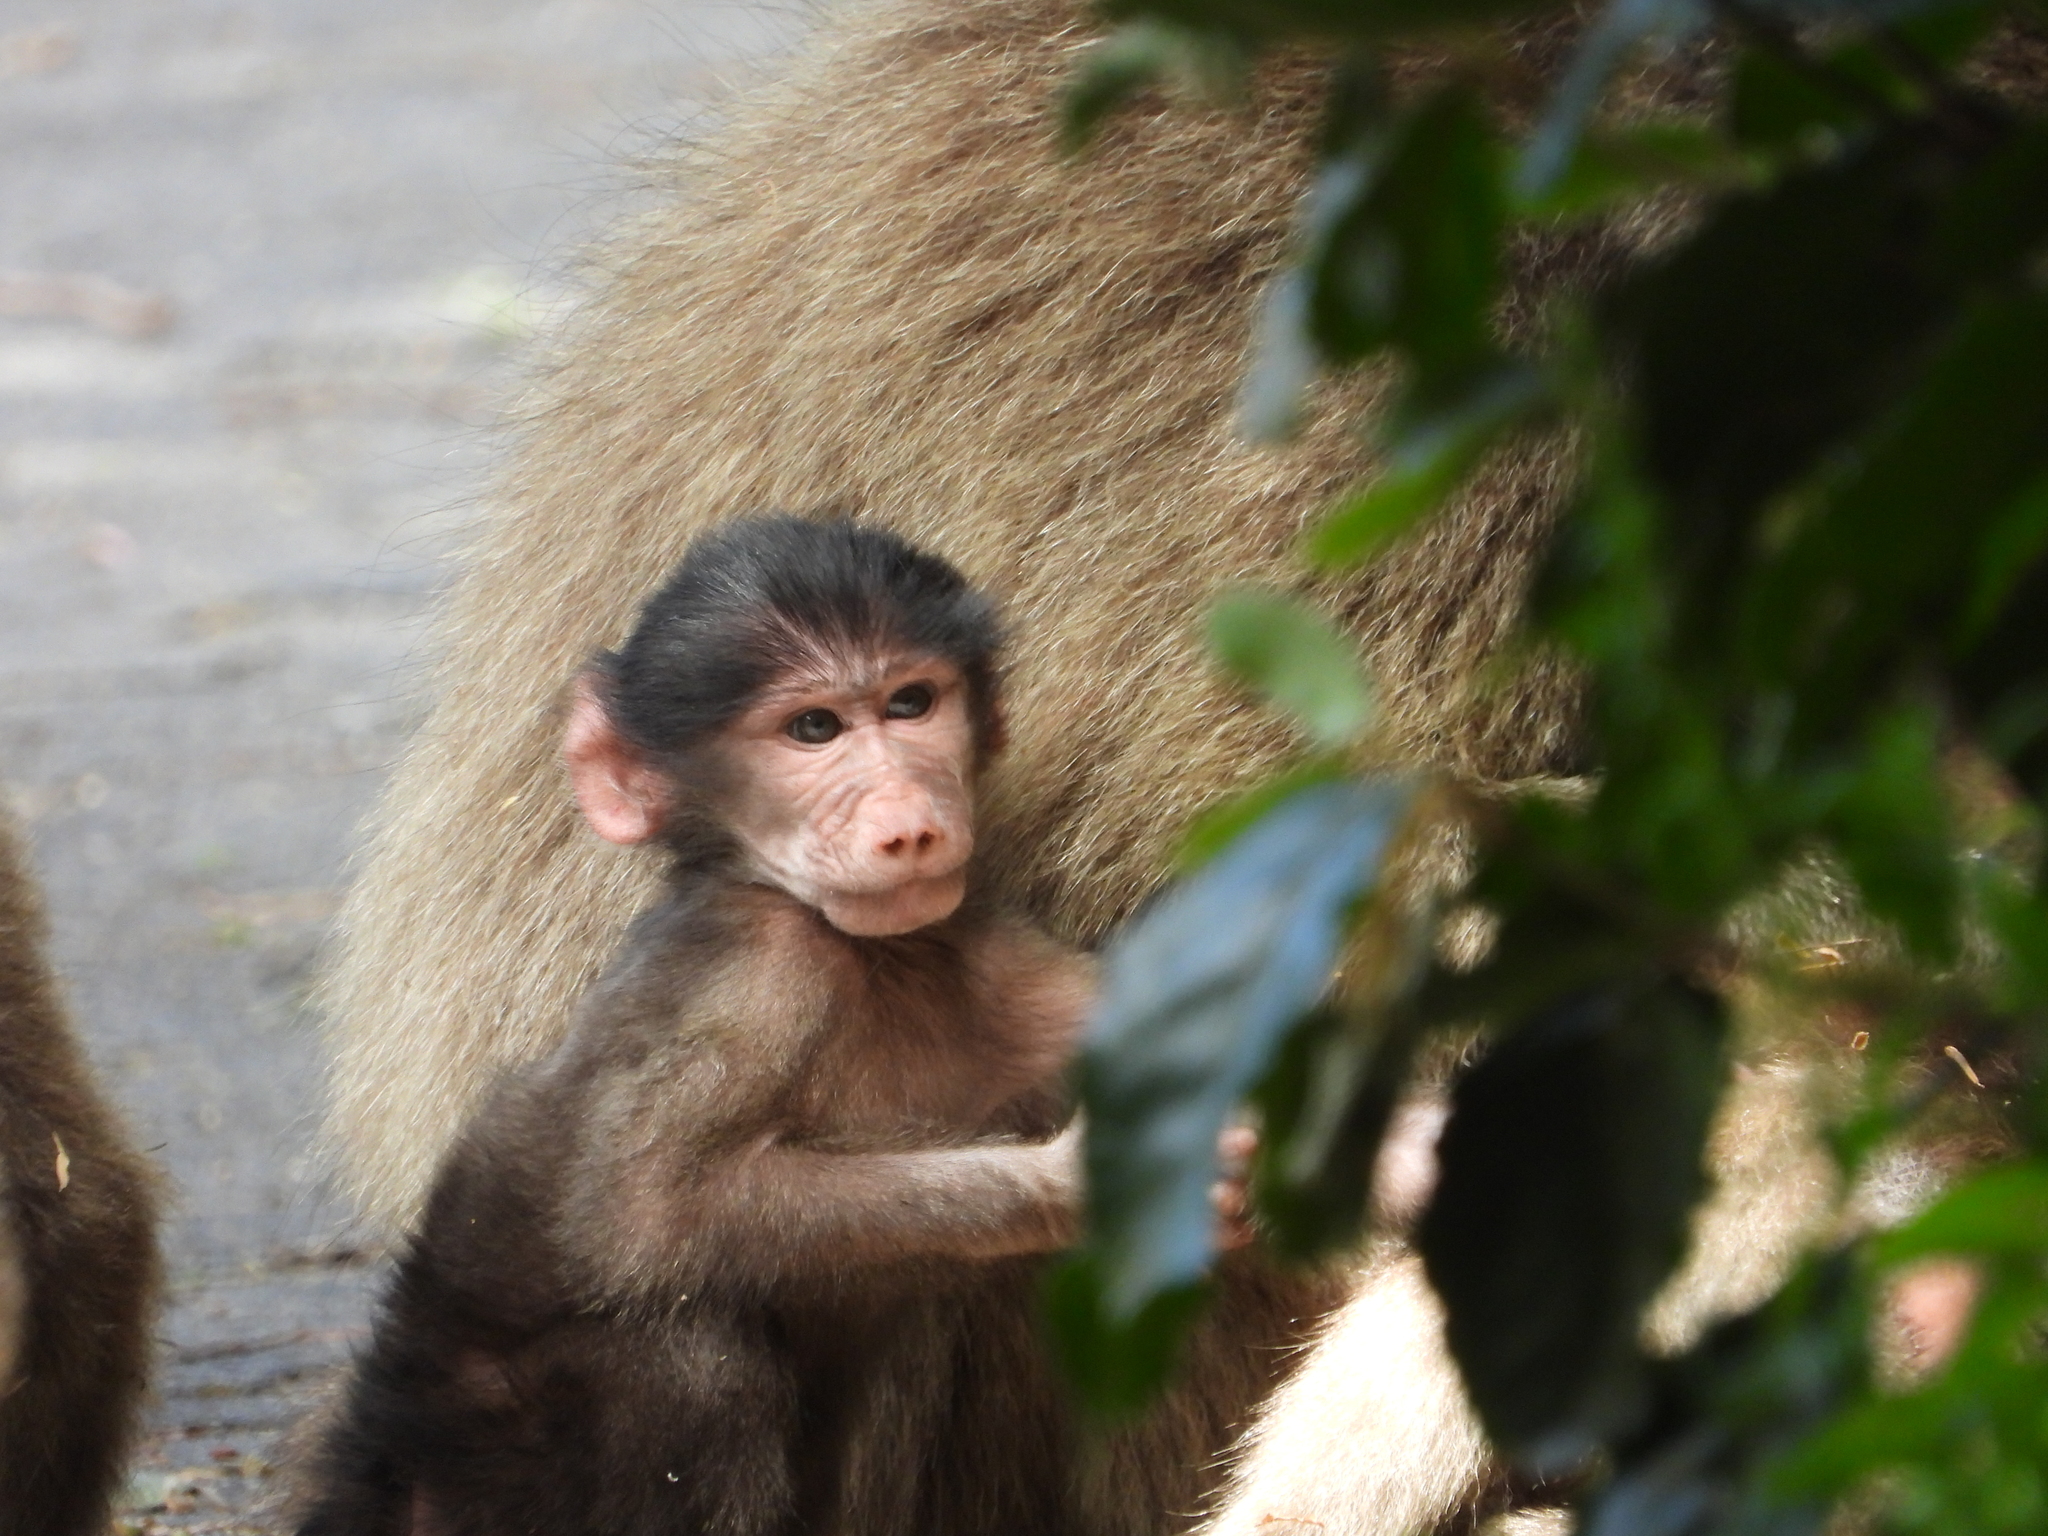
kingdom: Animalia
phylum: Chordata
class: Mammalia
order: Primates
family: Cercopithecidae
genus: Papio
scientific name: Papio ursinus
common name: Chacma baboon
